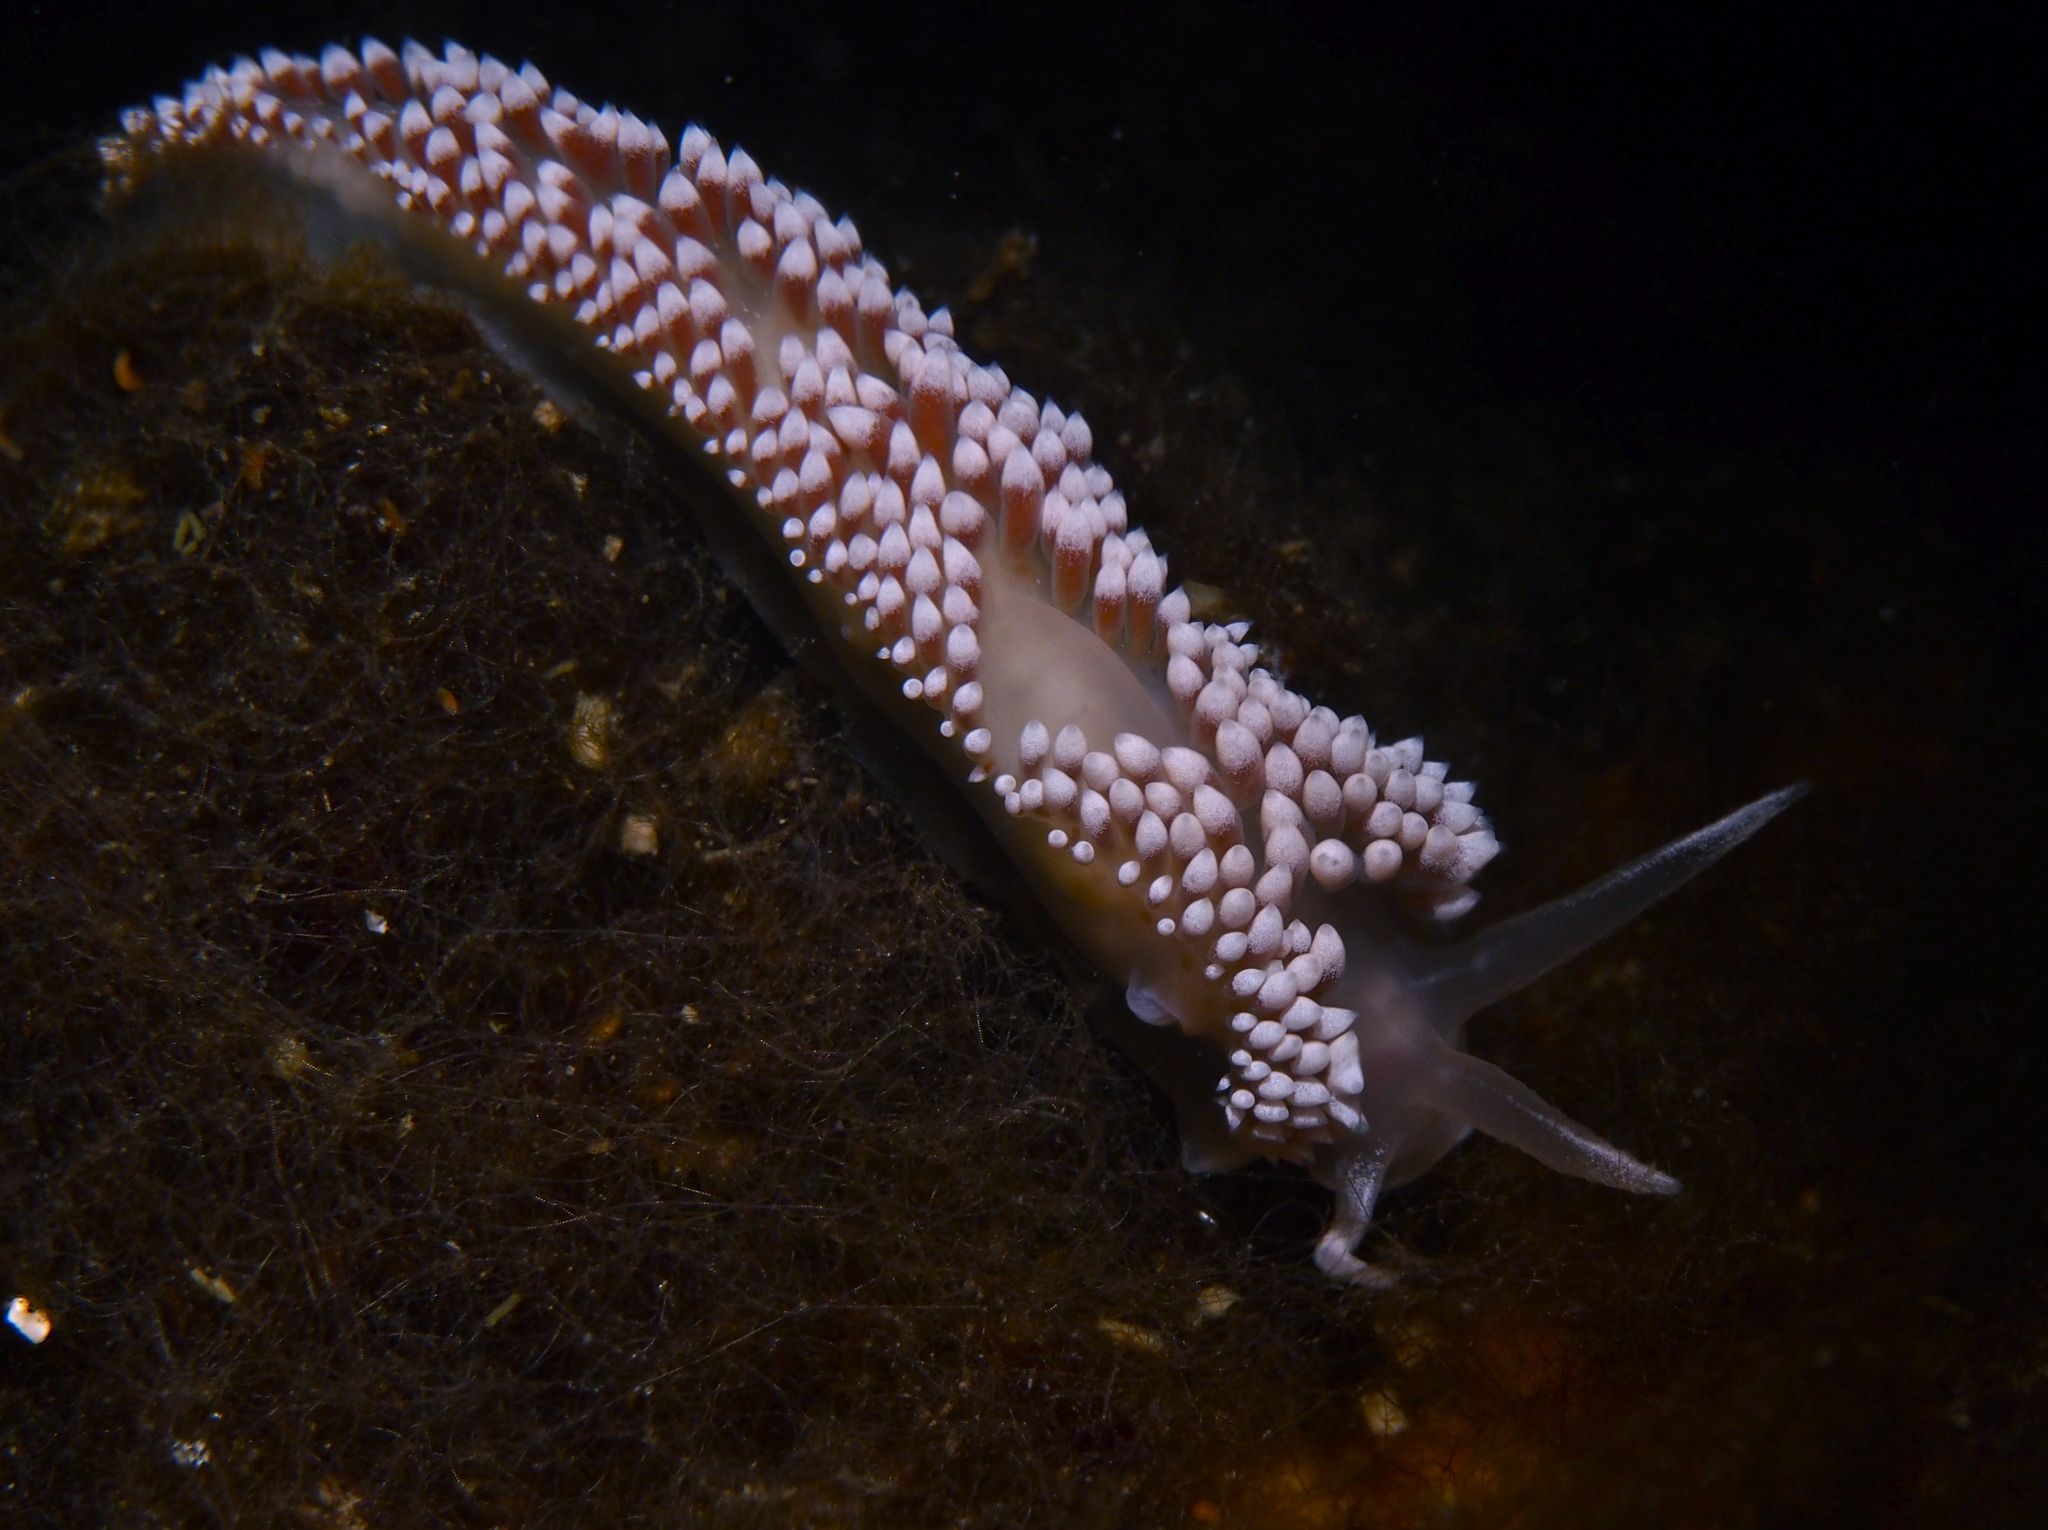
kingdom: Animalia
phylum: Mollusca
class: Gastropoda
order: Nudibranchia
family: Coryphellidae
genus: Coryphella
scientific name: Coryphella verrucosa
